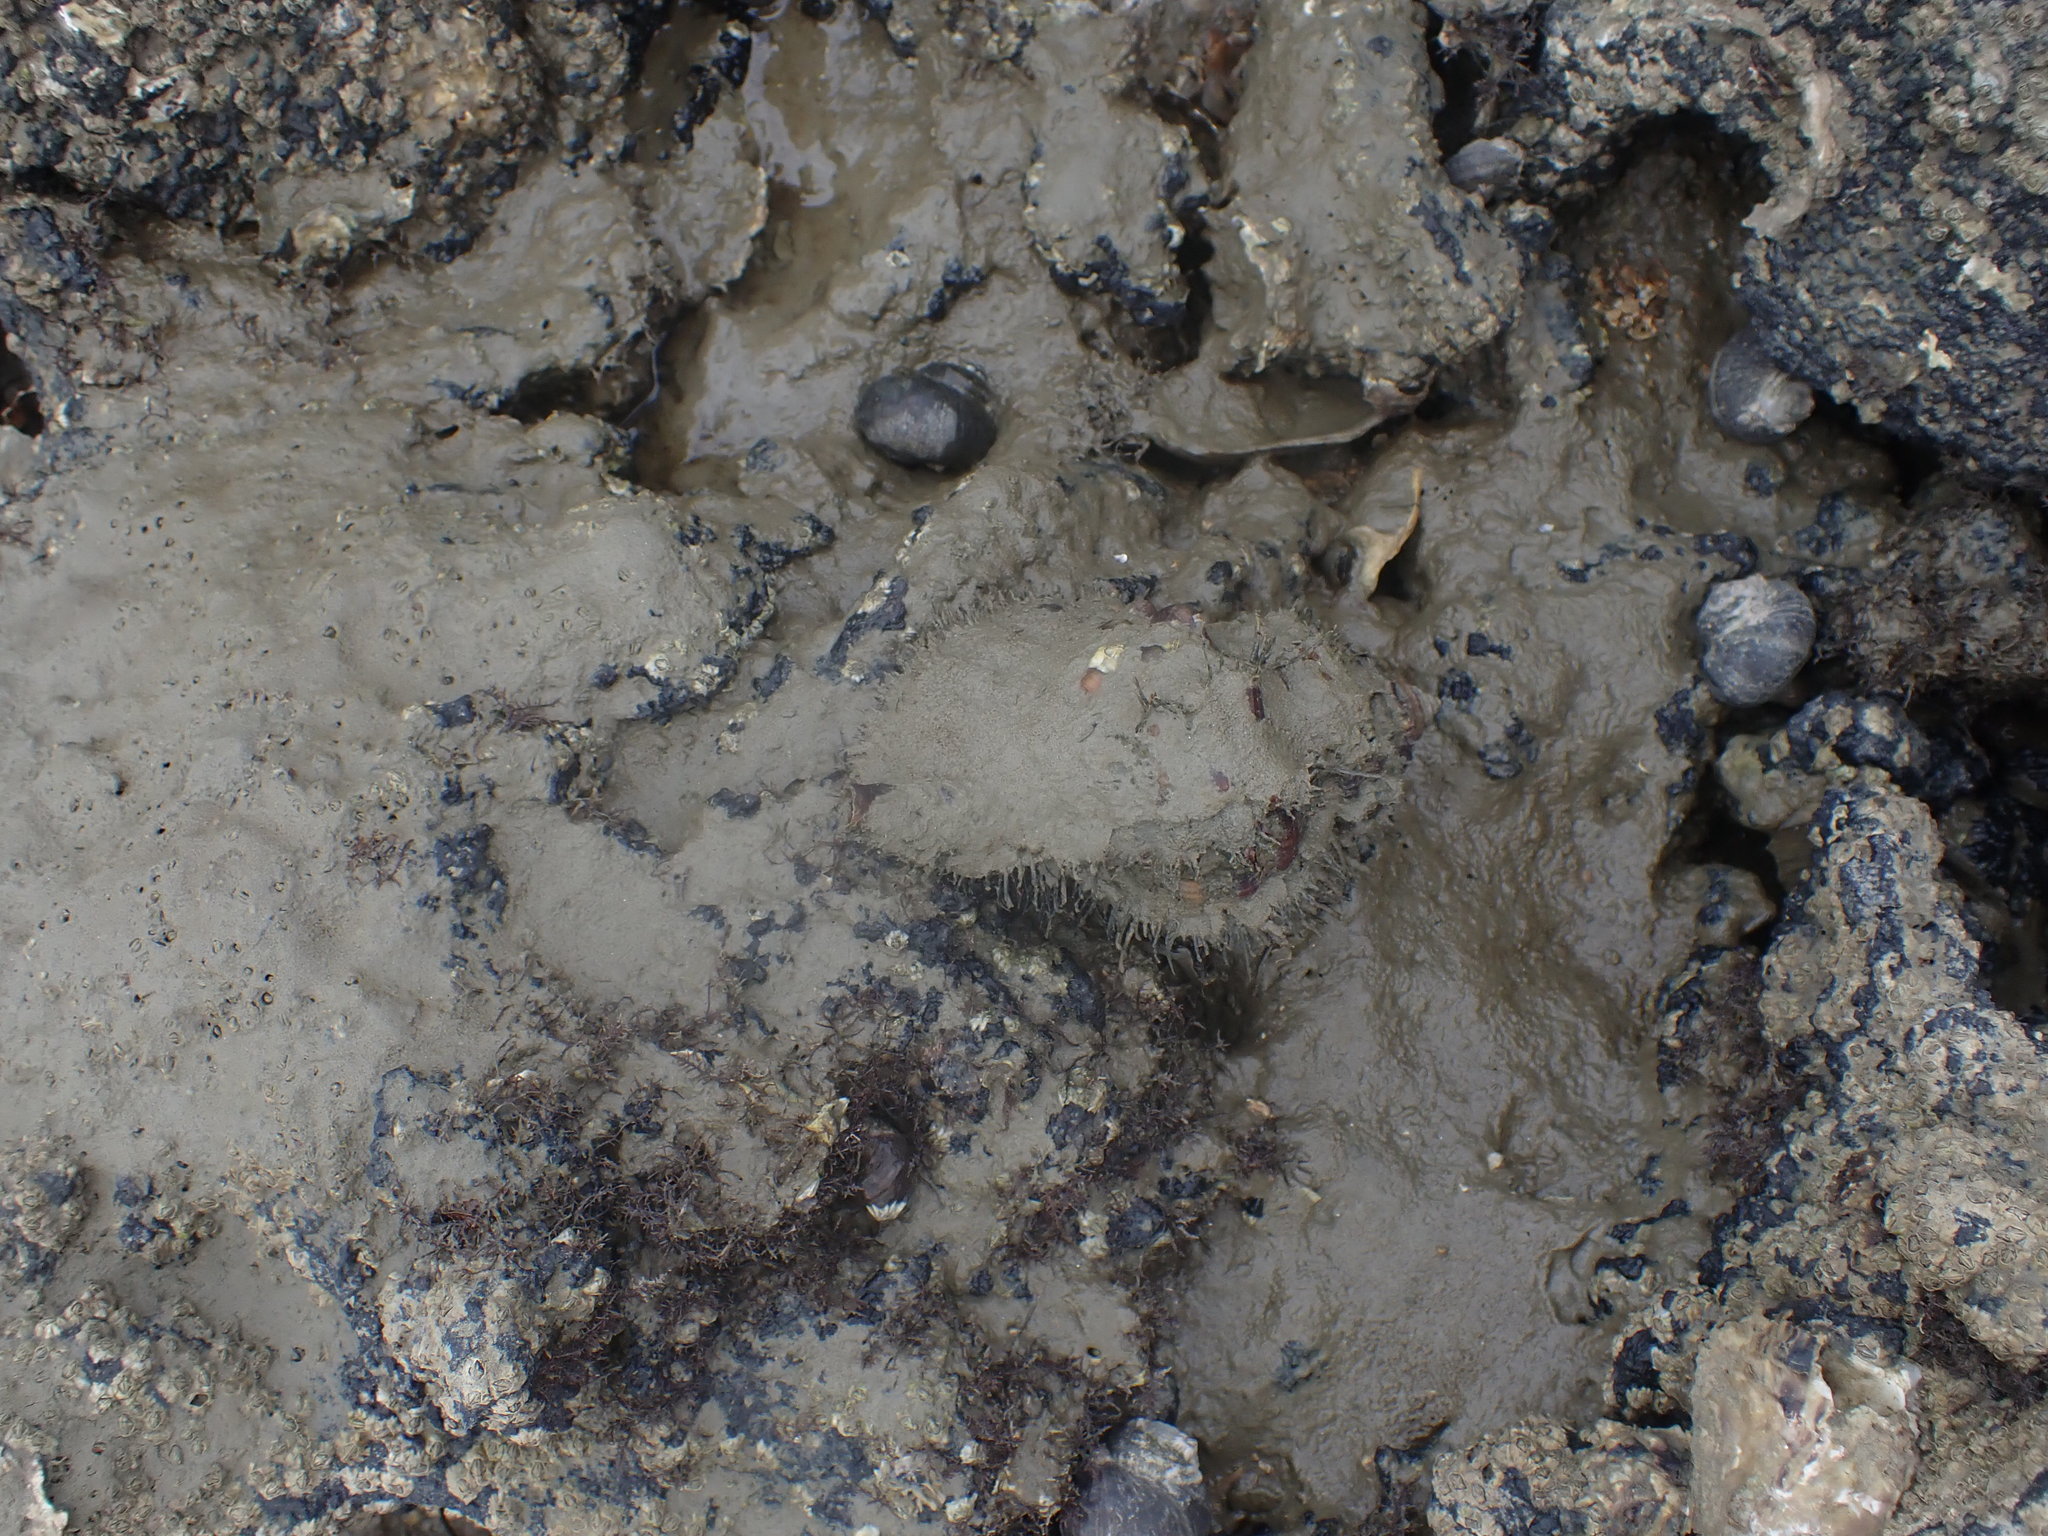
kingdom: Animalia
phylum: Mollusca
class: Gastropoda
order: Littorinimorpha
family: Cymatiidae
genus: Monoplex
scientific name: Monoplex parthenopeus
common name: Giant triton
